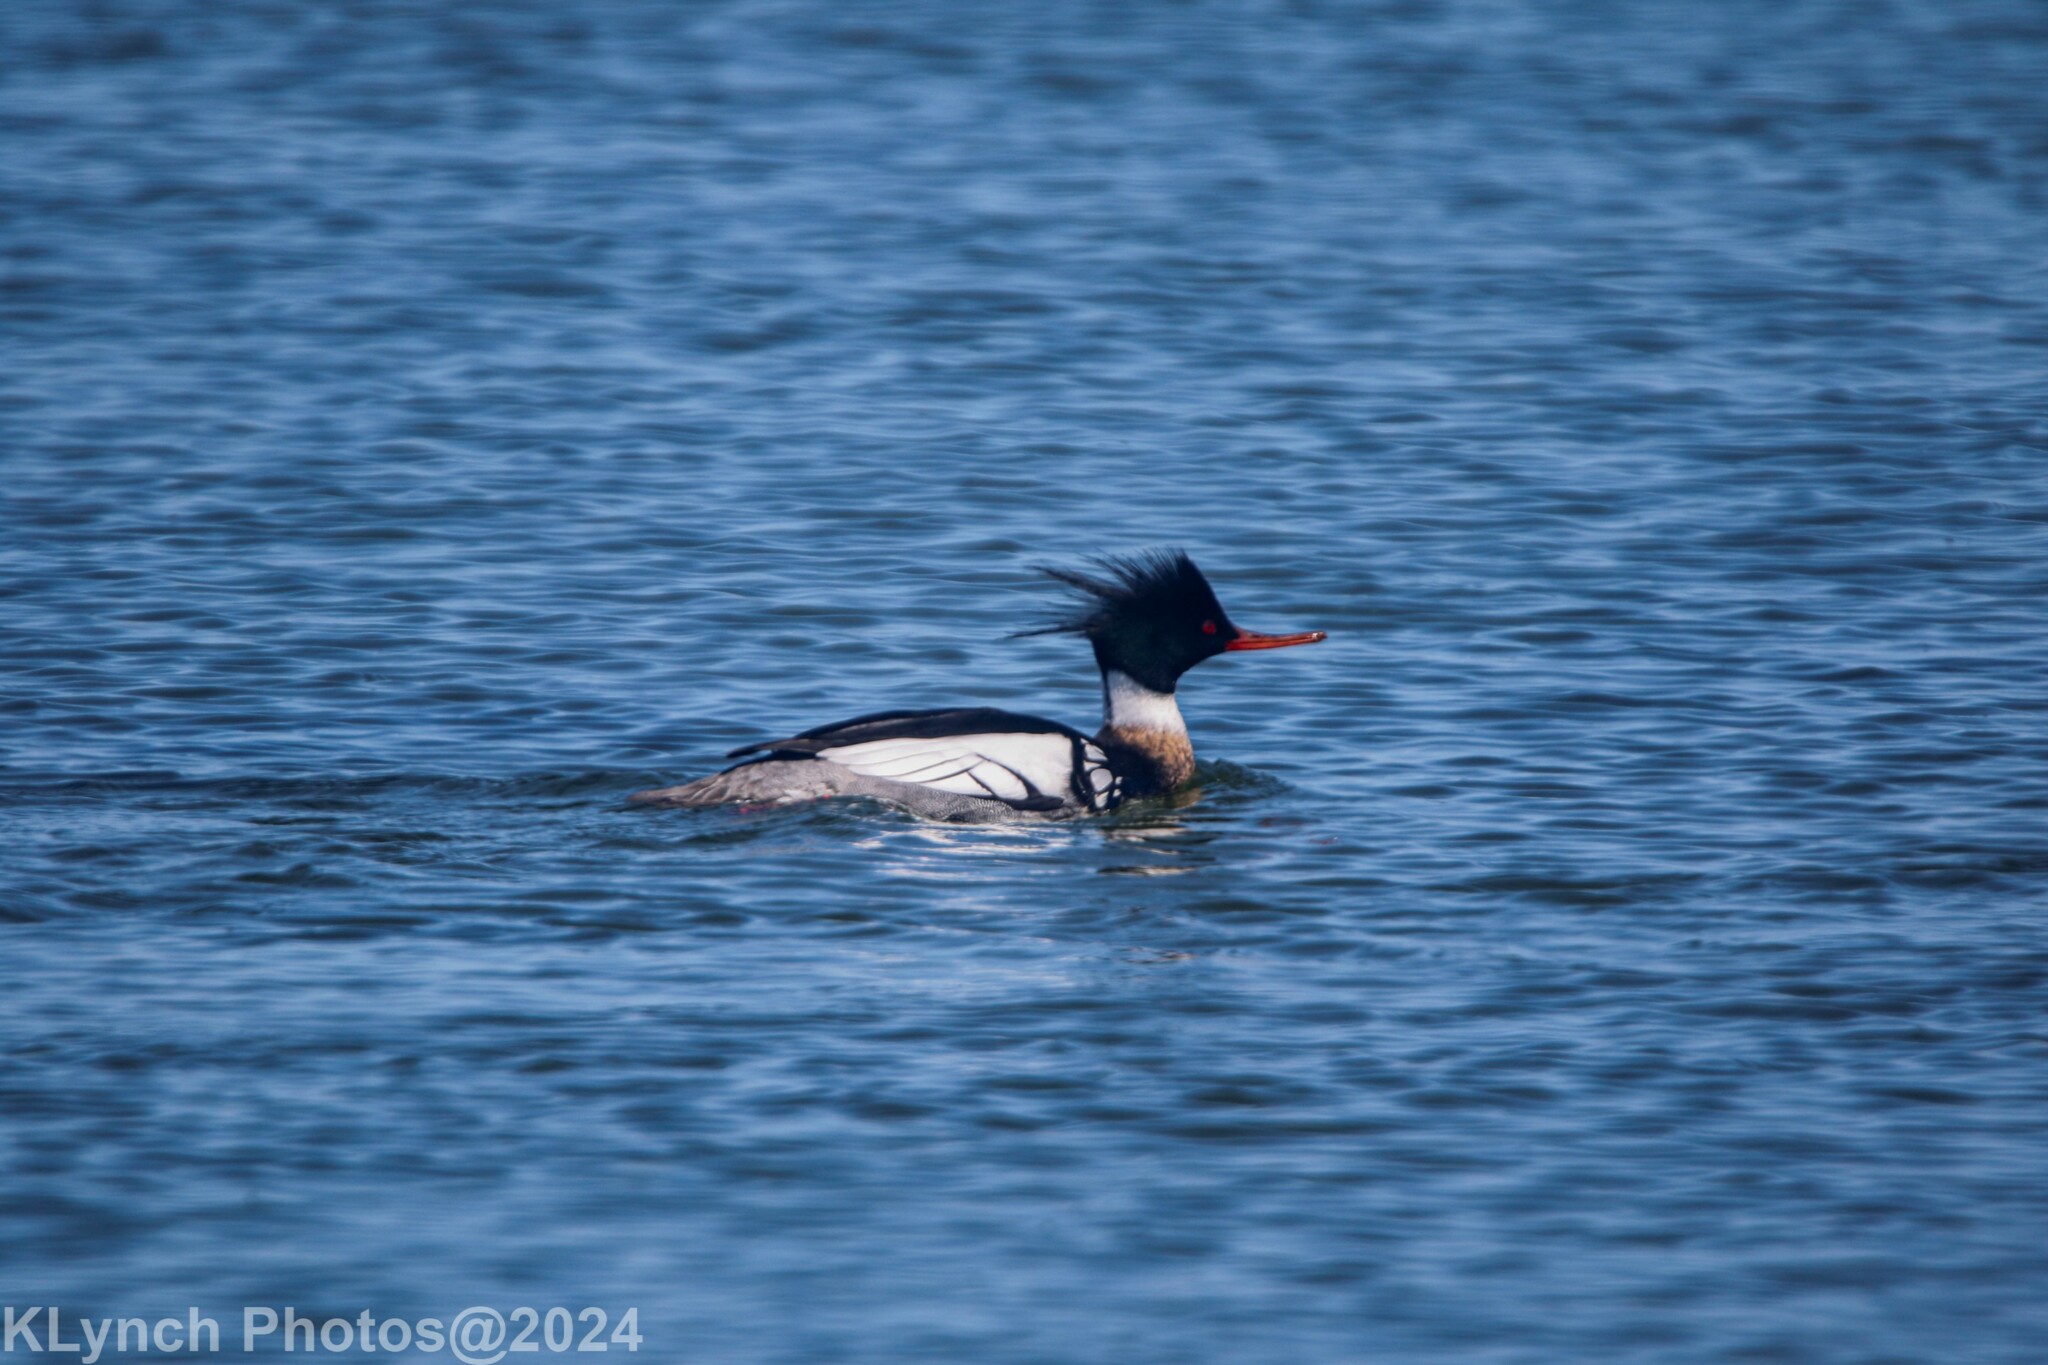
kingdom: Animalia
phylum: Chordata
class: Aves
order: Anseriformes
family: Anatidae
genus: Mergus
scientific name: Mergus serrator
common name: Red-breasted merganser
